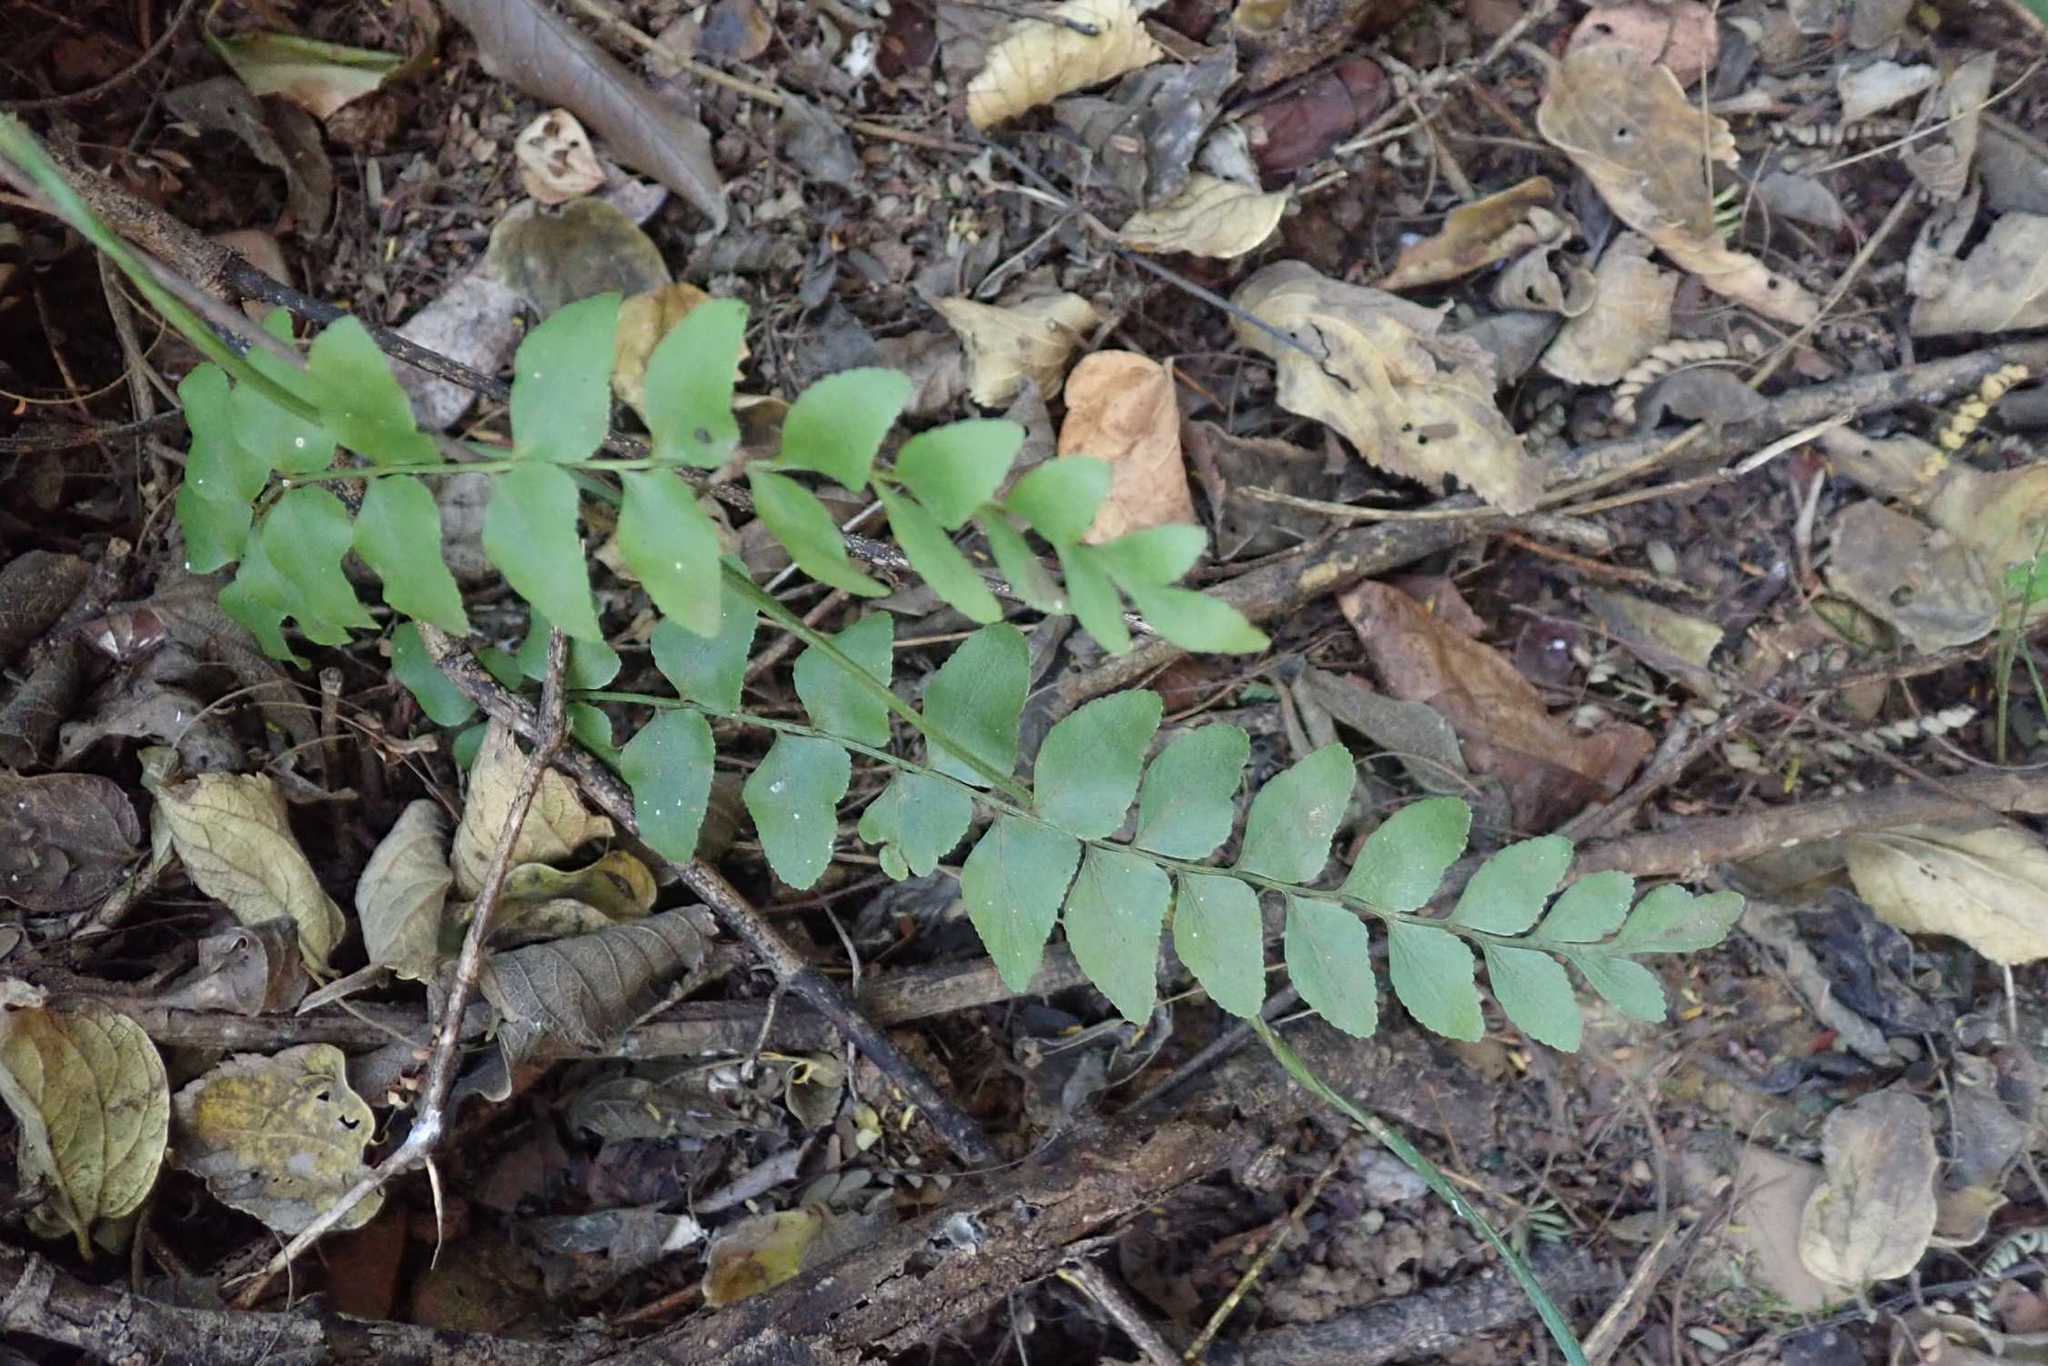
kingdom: Plantae
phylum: Tracheophyta
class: Polypodiopsida
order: Schizaeales
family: Anemiaceae
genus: Anemia
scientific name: Anemia dregeana
